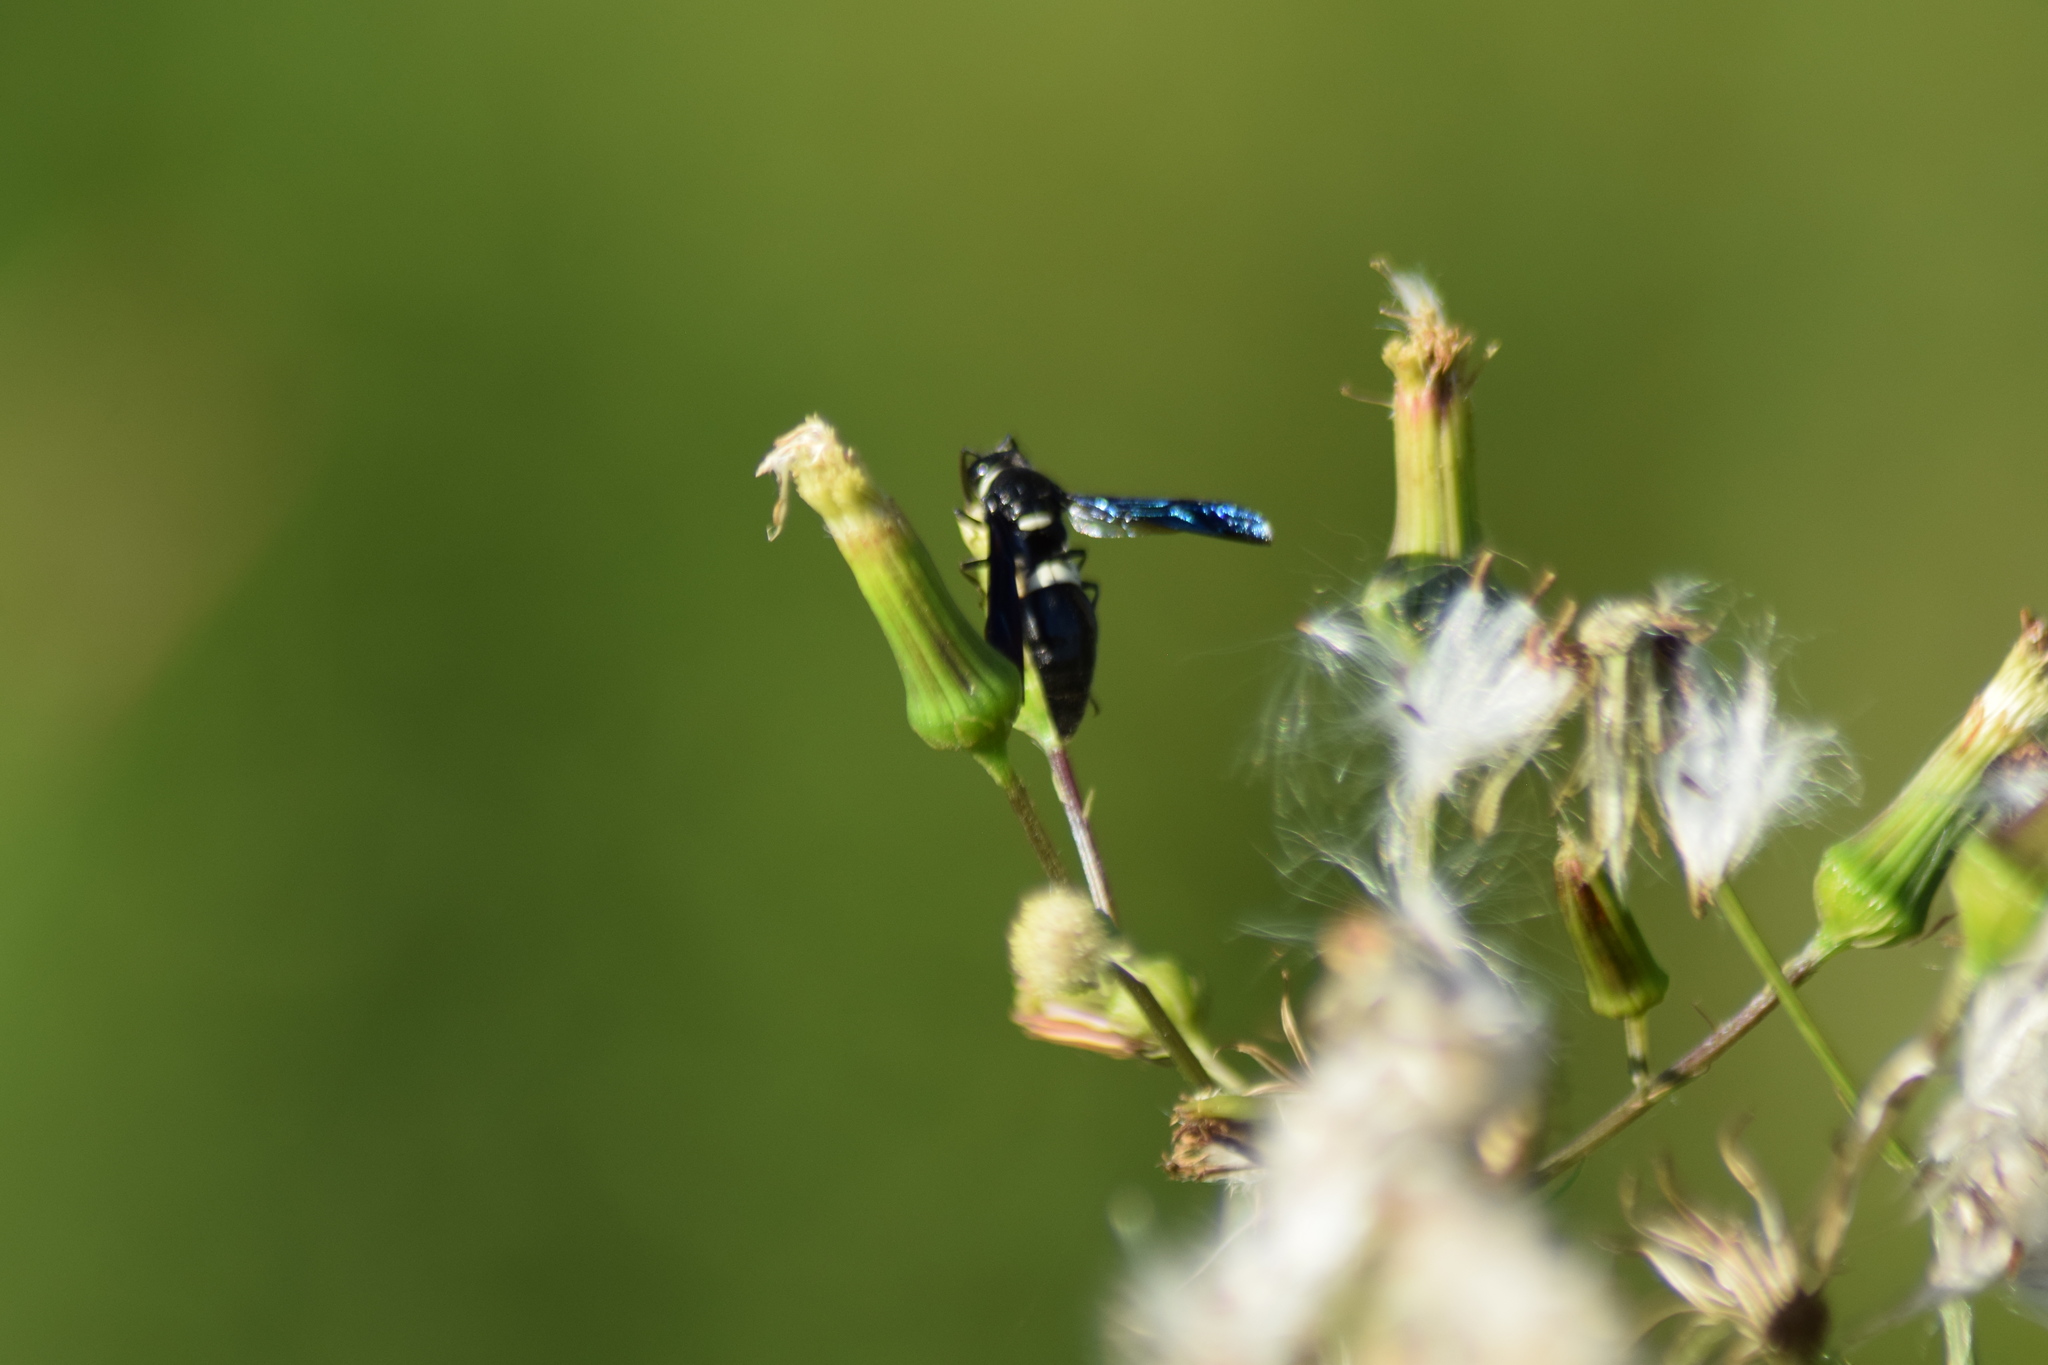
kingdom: Animalia
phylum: Arthropoda
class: Insecta
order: Hymenoptera
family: Eumenidae
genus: Monobia
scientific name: Monobia quadridens
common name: Four-toothed mason wasp
